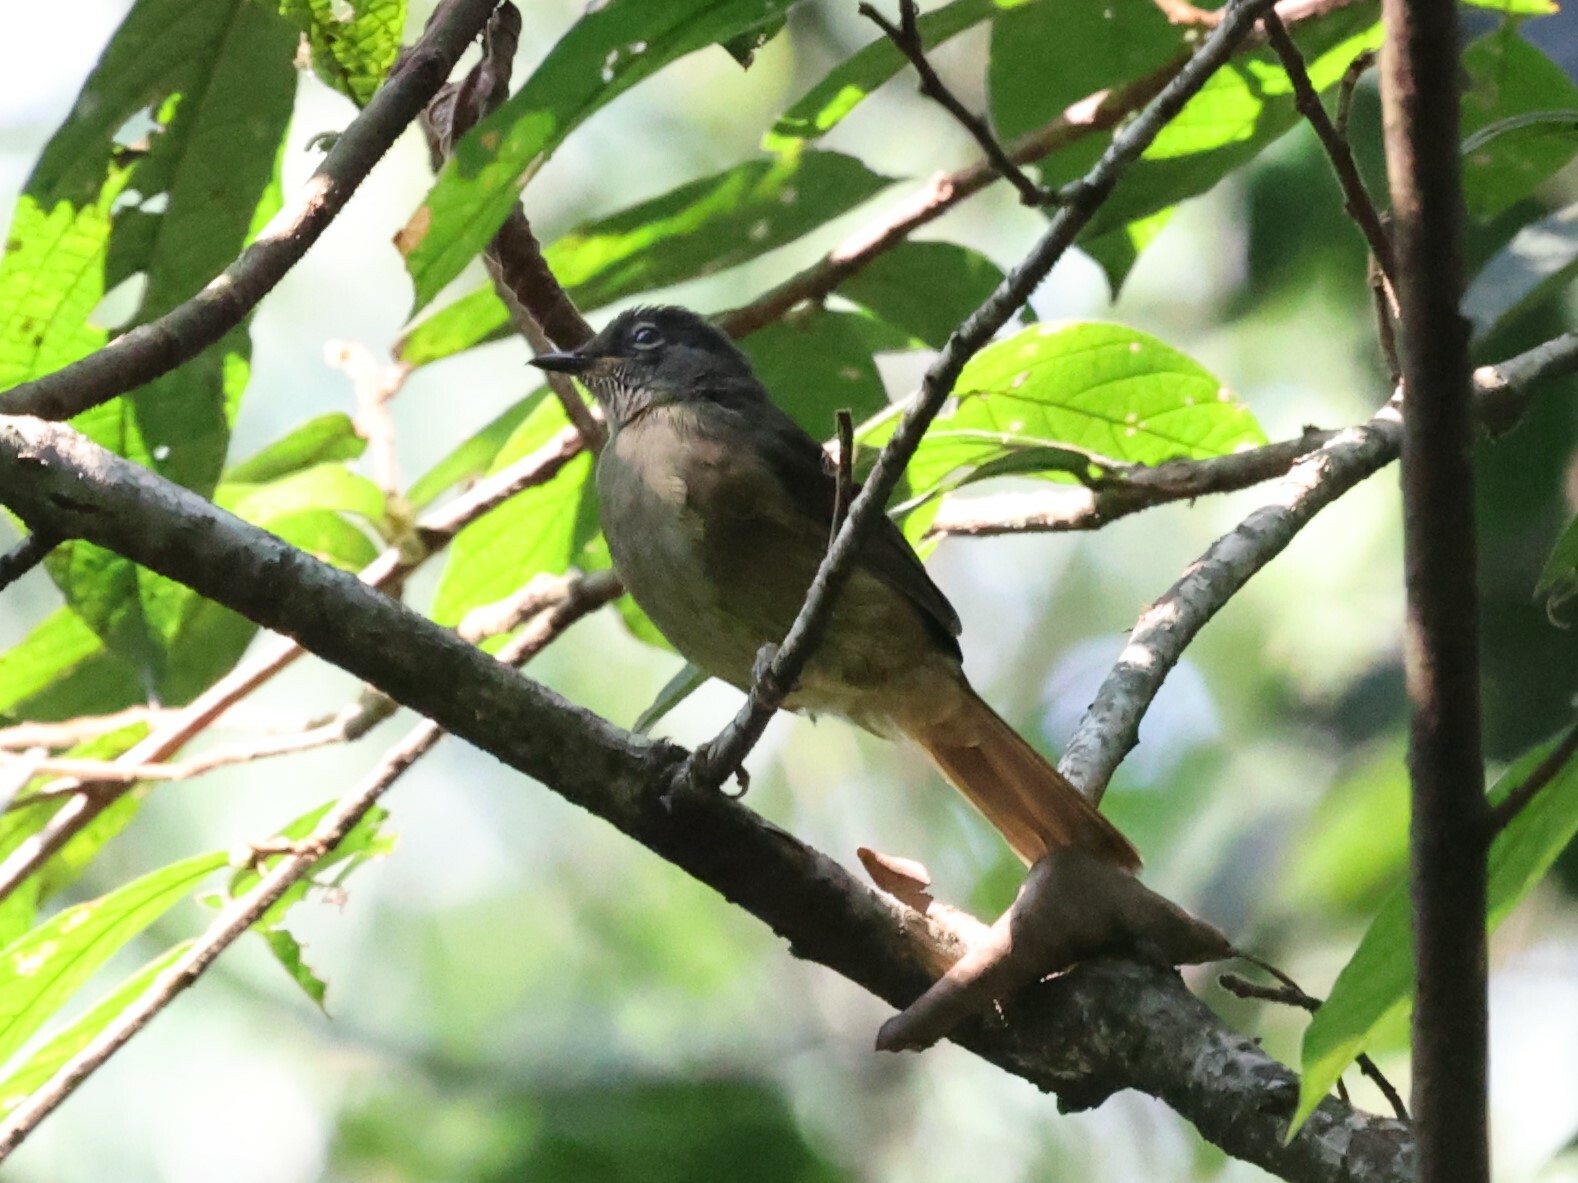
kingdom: Animalia
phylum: Chordata
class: Aves
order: Passeriformes
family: Pycnonotidae
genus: Eurillas
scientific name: Eurillas curvirostris
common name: Plain greenbul
